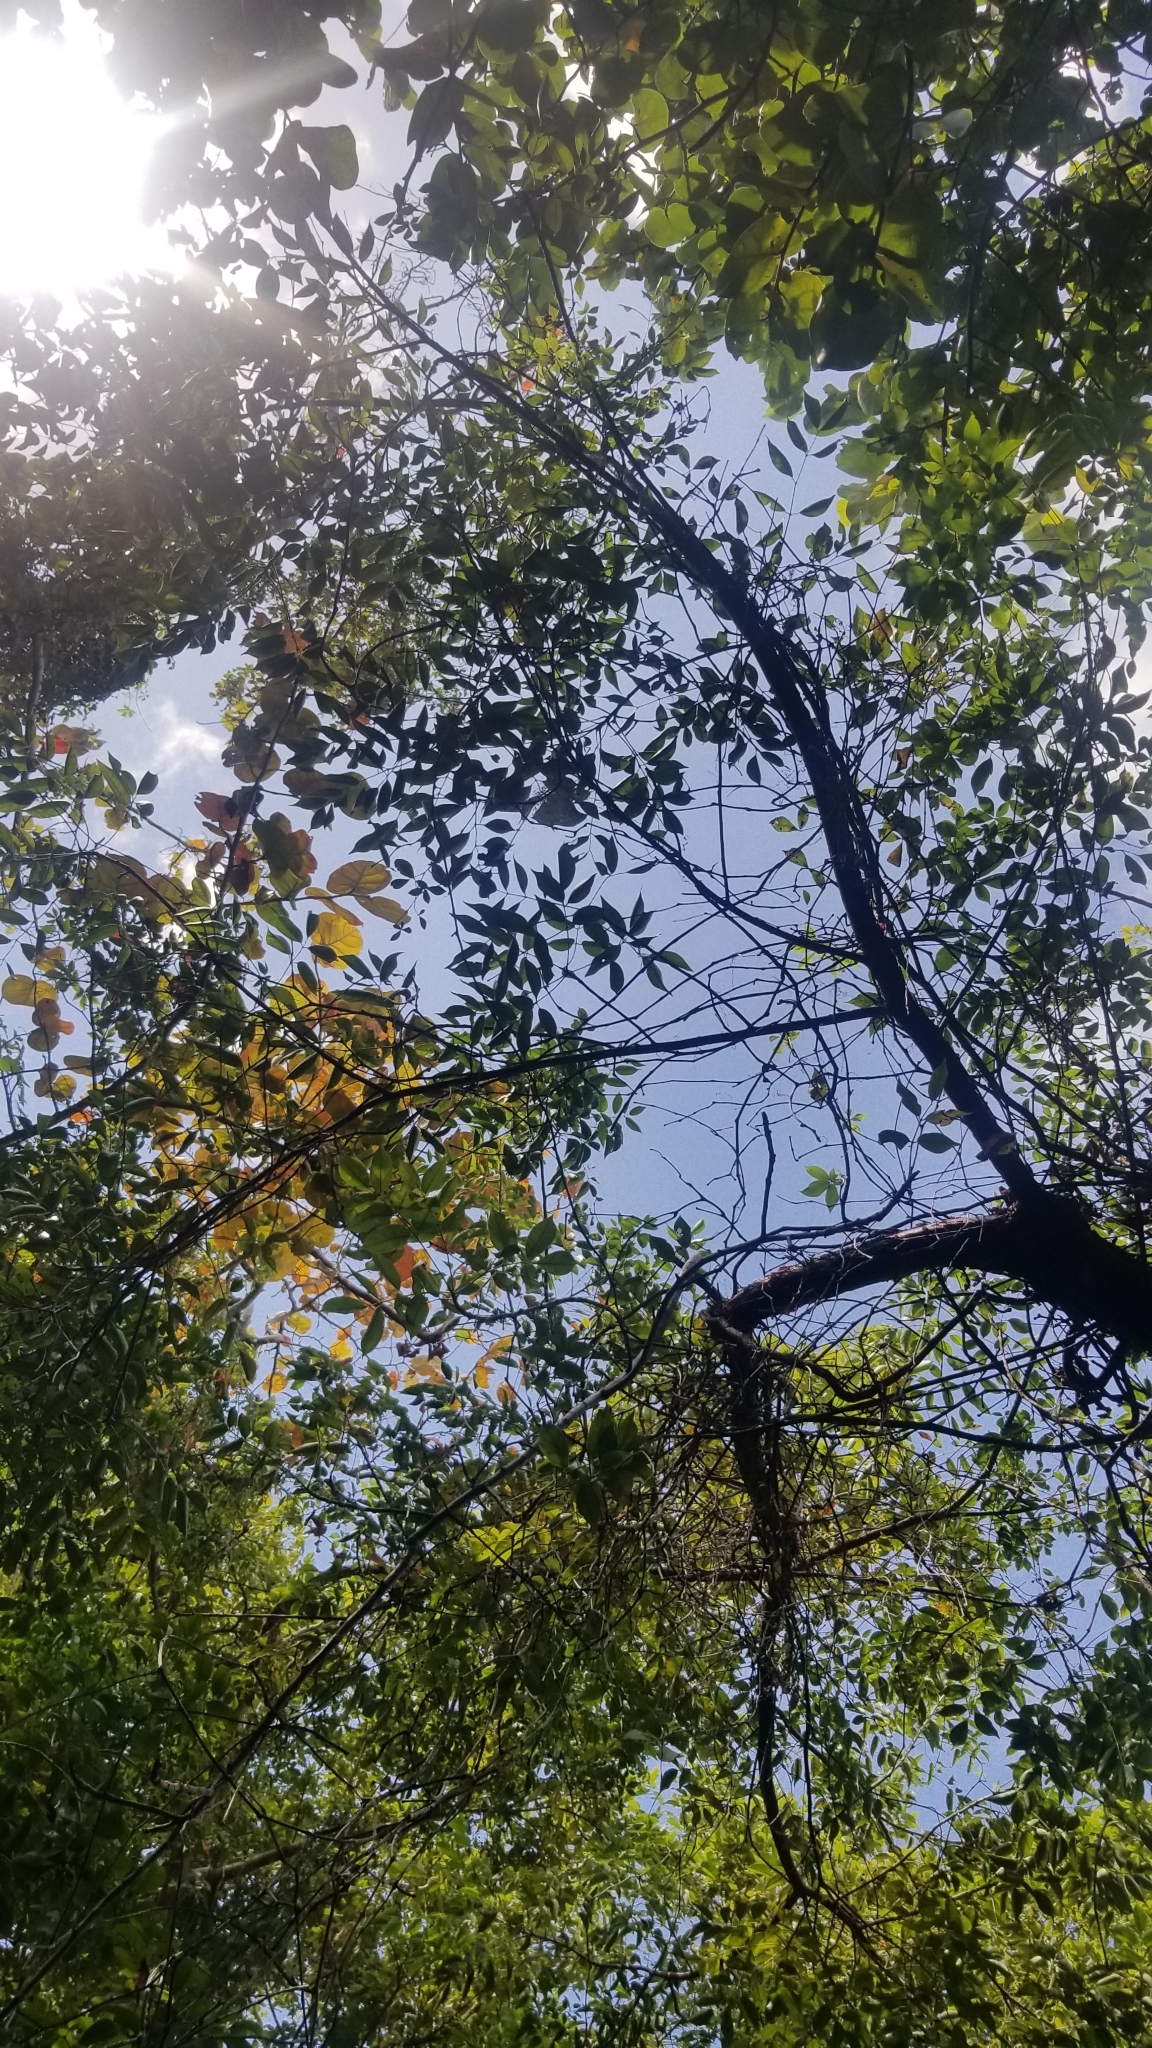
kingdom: Plantae
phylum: Tracheophyta
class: Magnoliopsida
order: Sapindales
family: Burseraceae
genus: Bursera
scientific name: Bursera simaruba
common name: Turpentine tree
